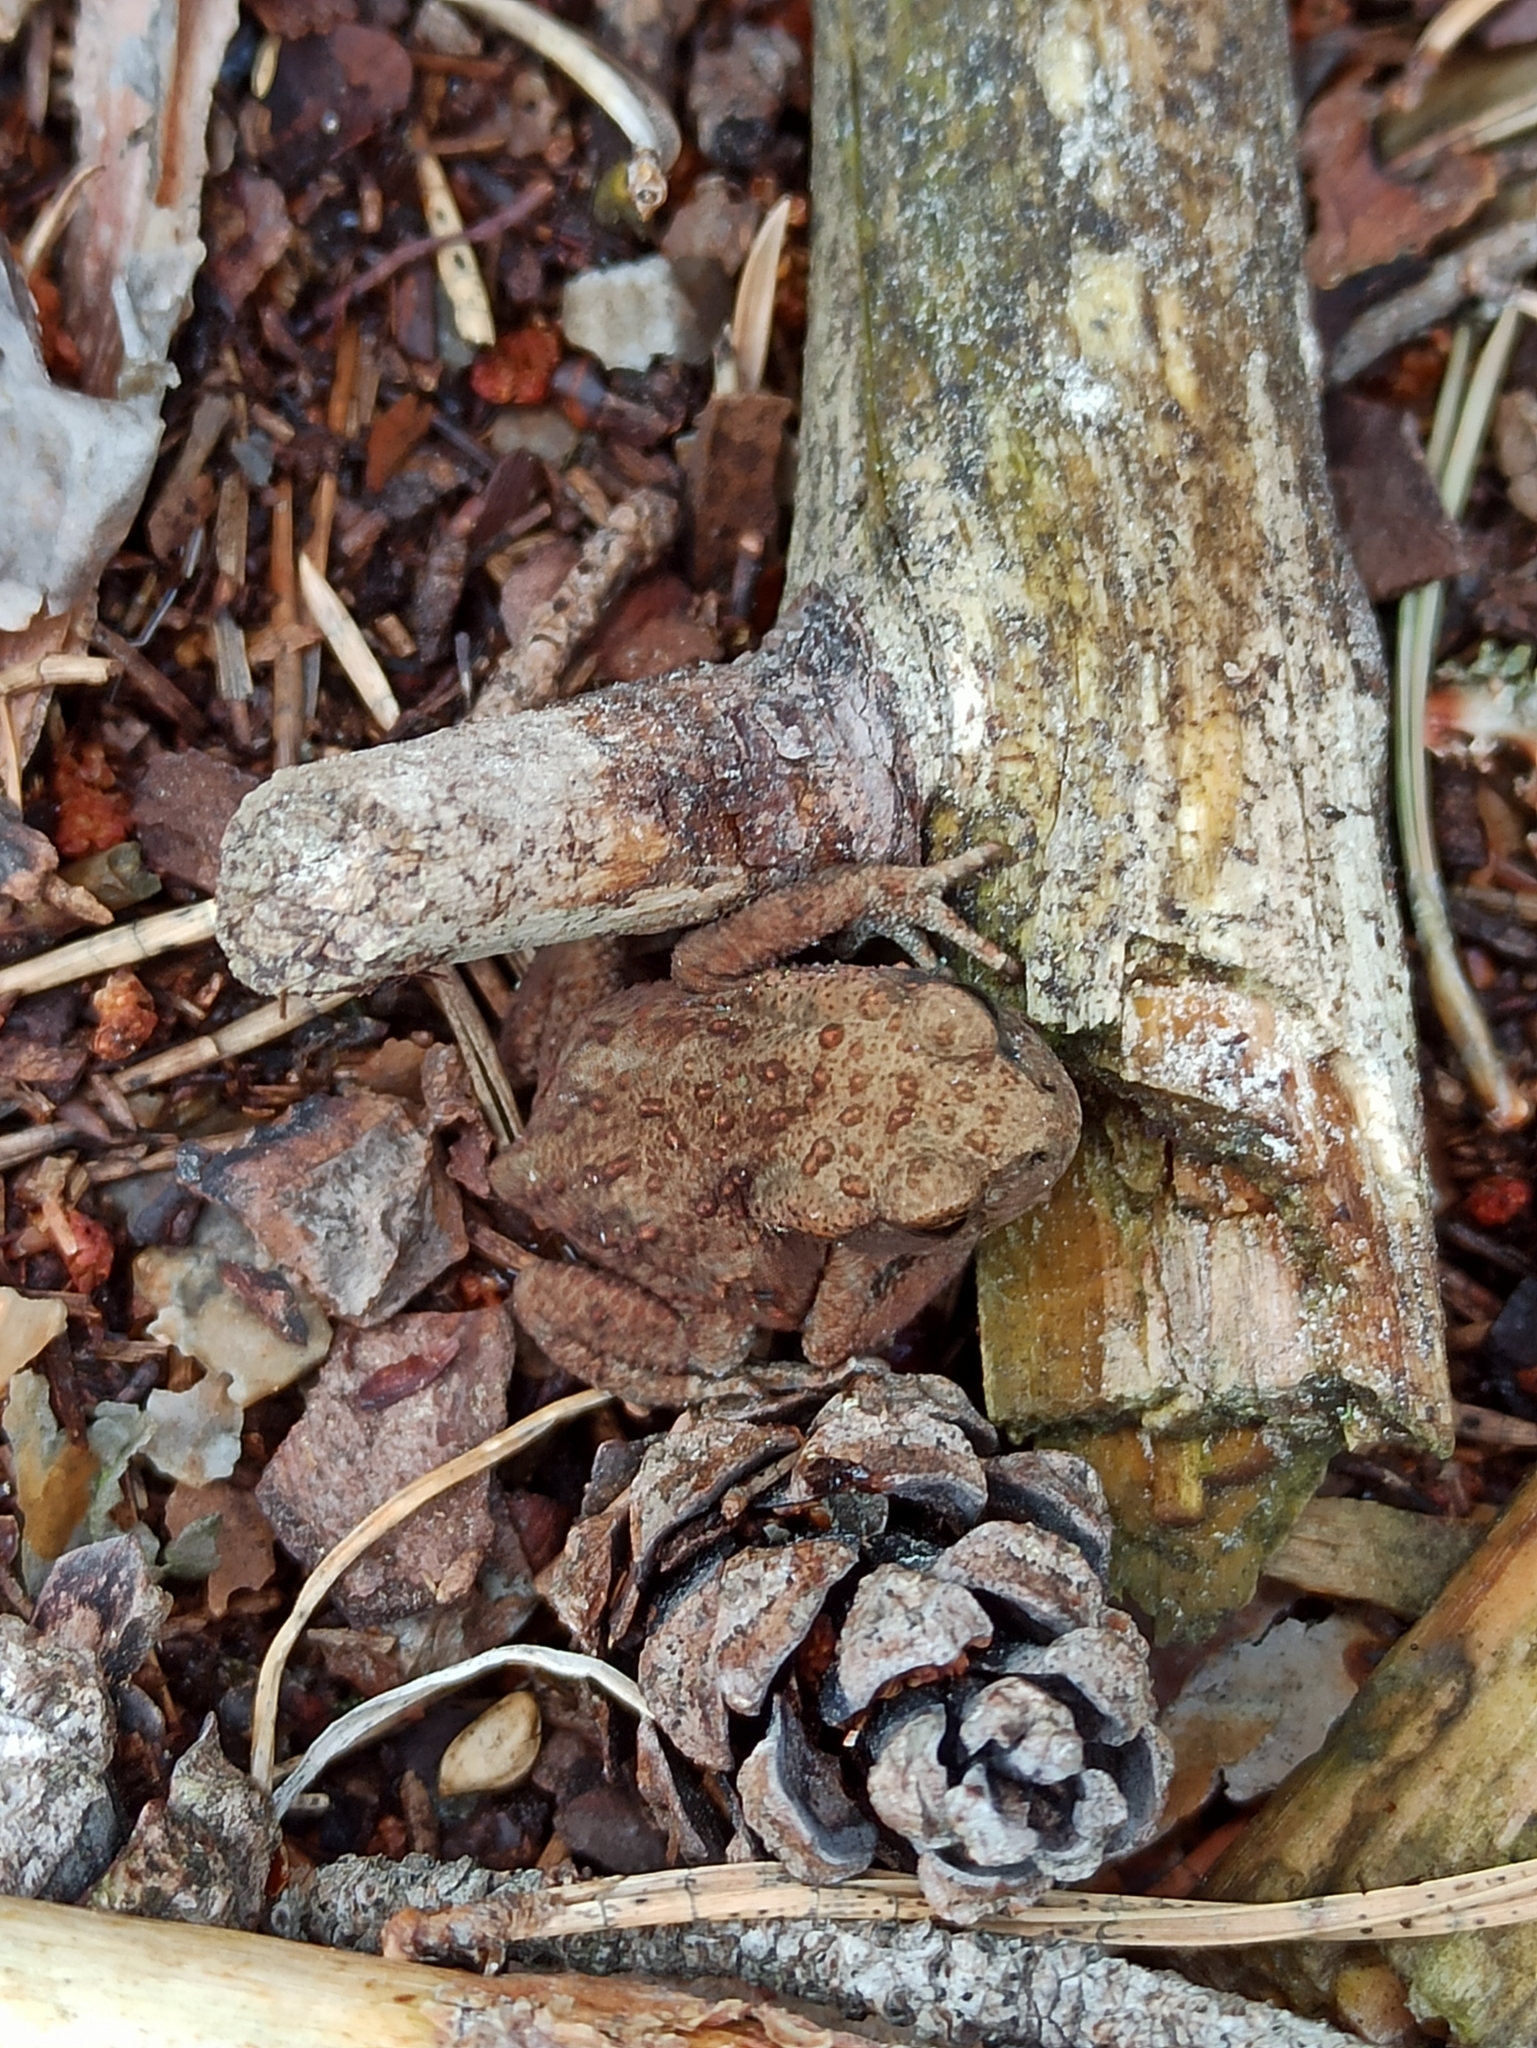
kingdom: Animalia
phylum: Chordata
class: Amphibia
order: Anura
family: Bufonidae
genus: Bufo
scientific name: Bufo bufo
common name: Common toad
